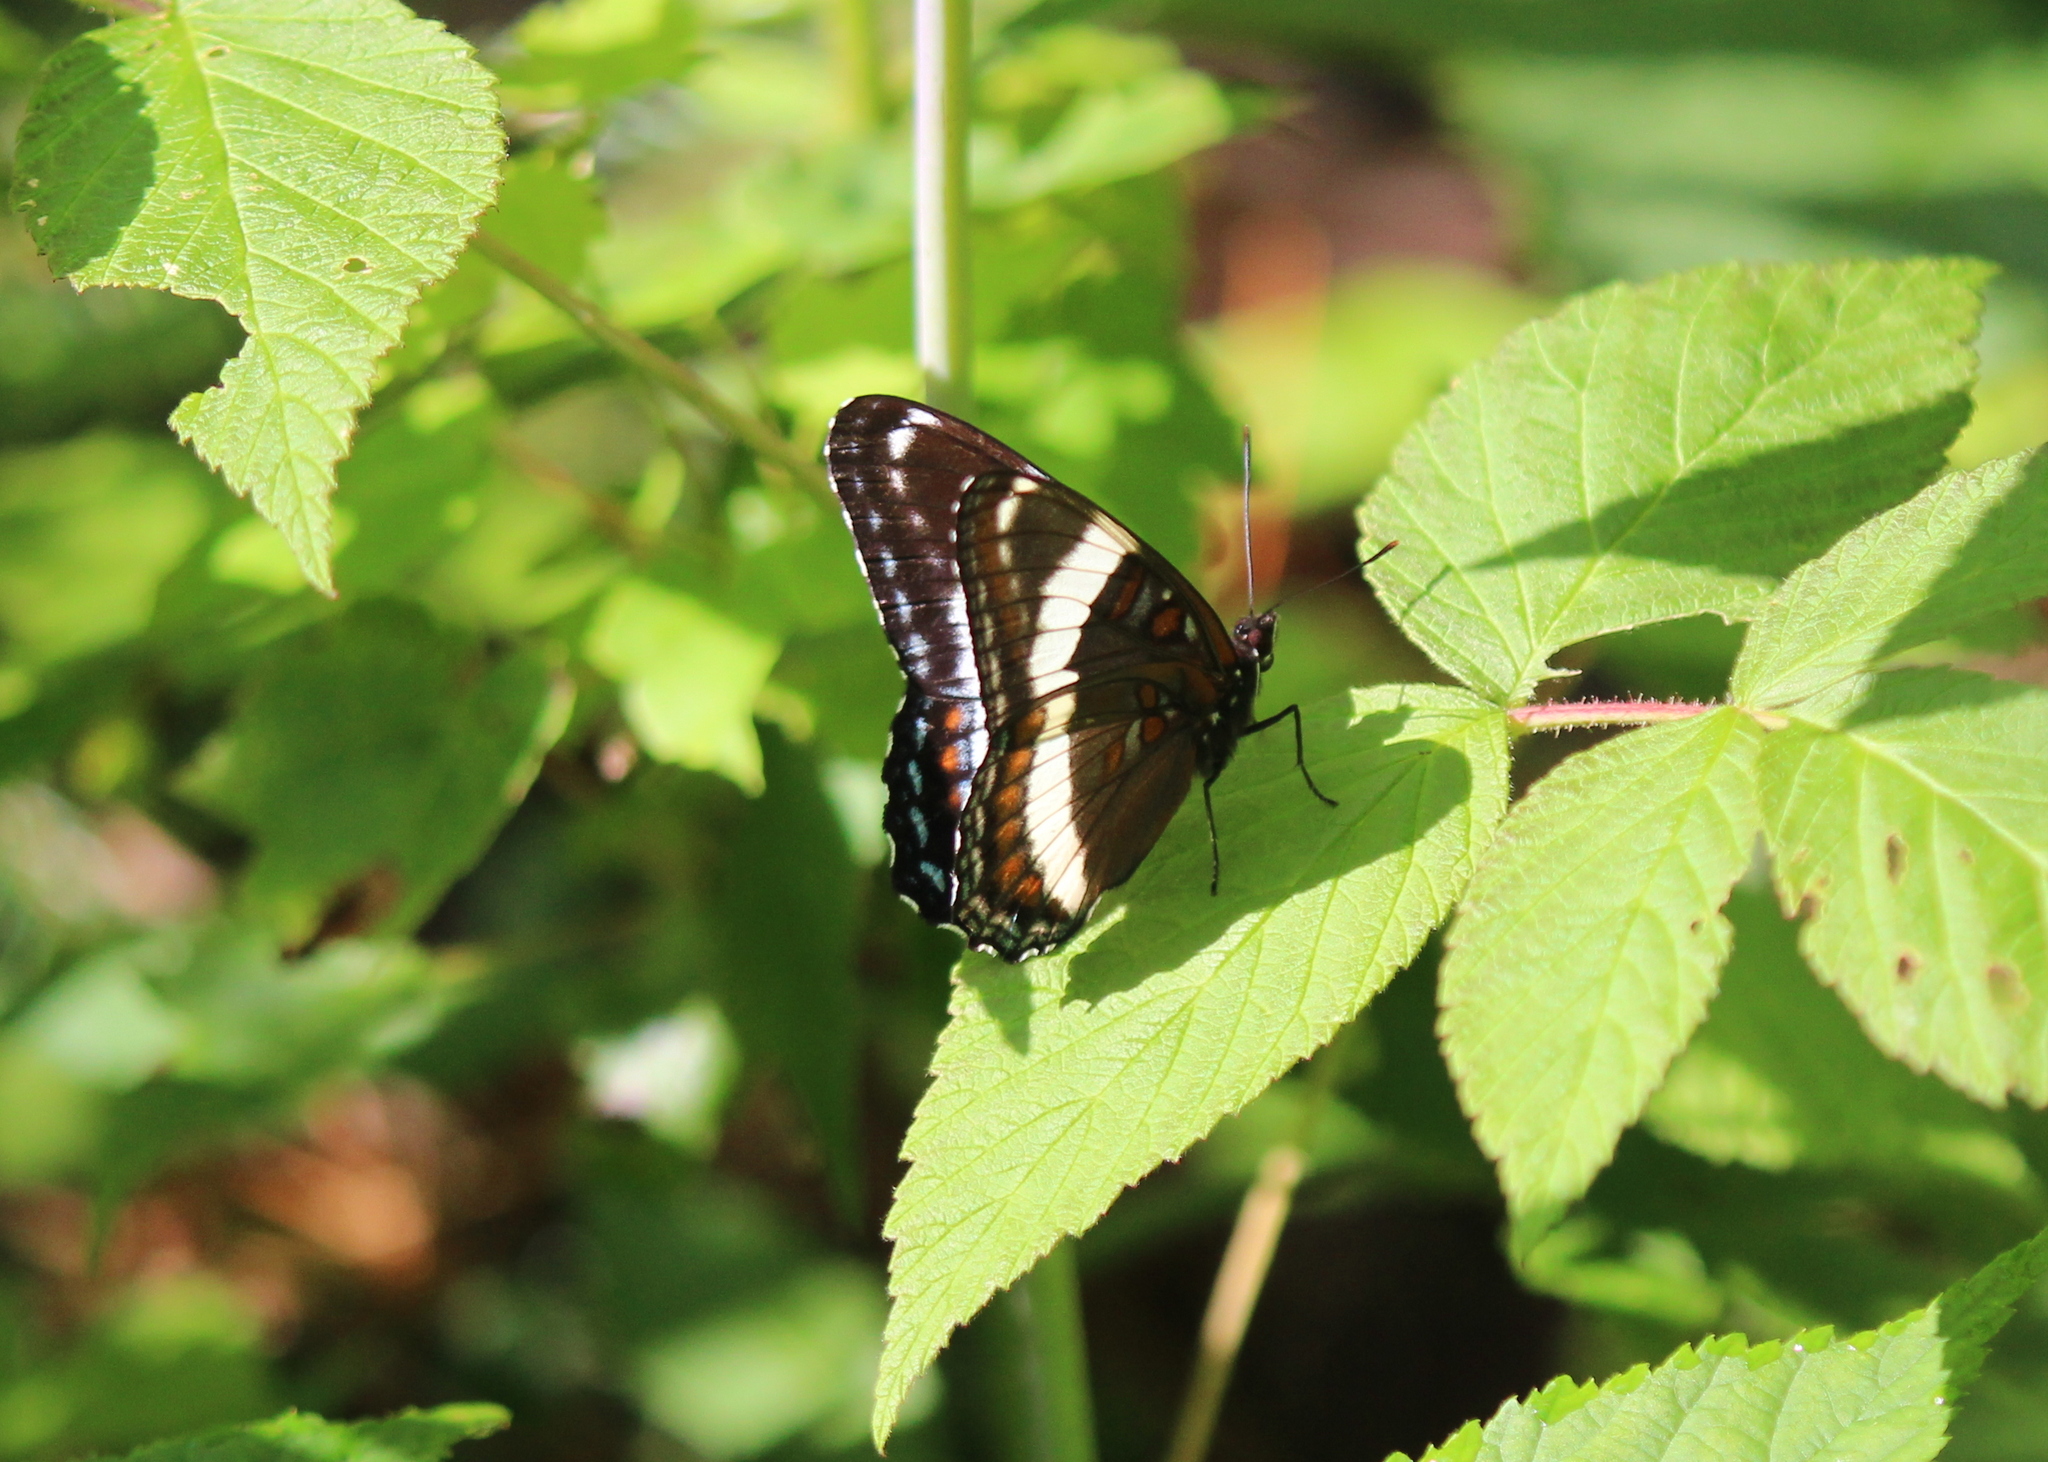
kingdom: Animalia
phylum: Arthropoda
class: Insecta
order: Lepidoptera
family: Nymphalidae
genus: Limenitis
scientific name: Limenitis arthemis
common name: Red-spotted admiral
